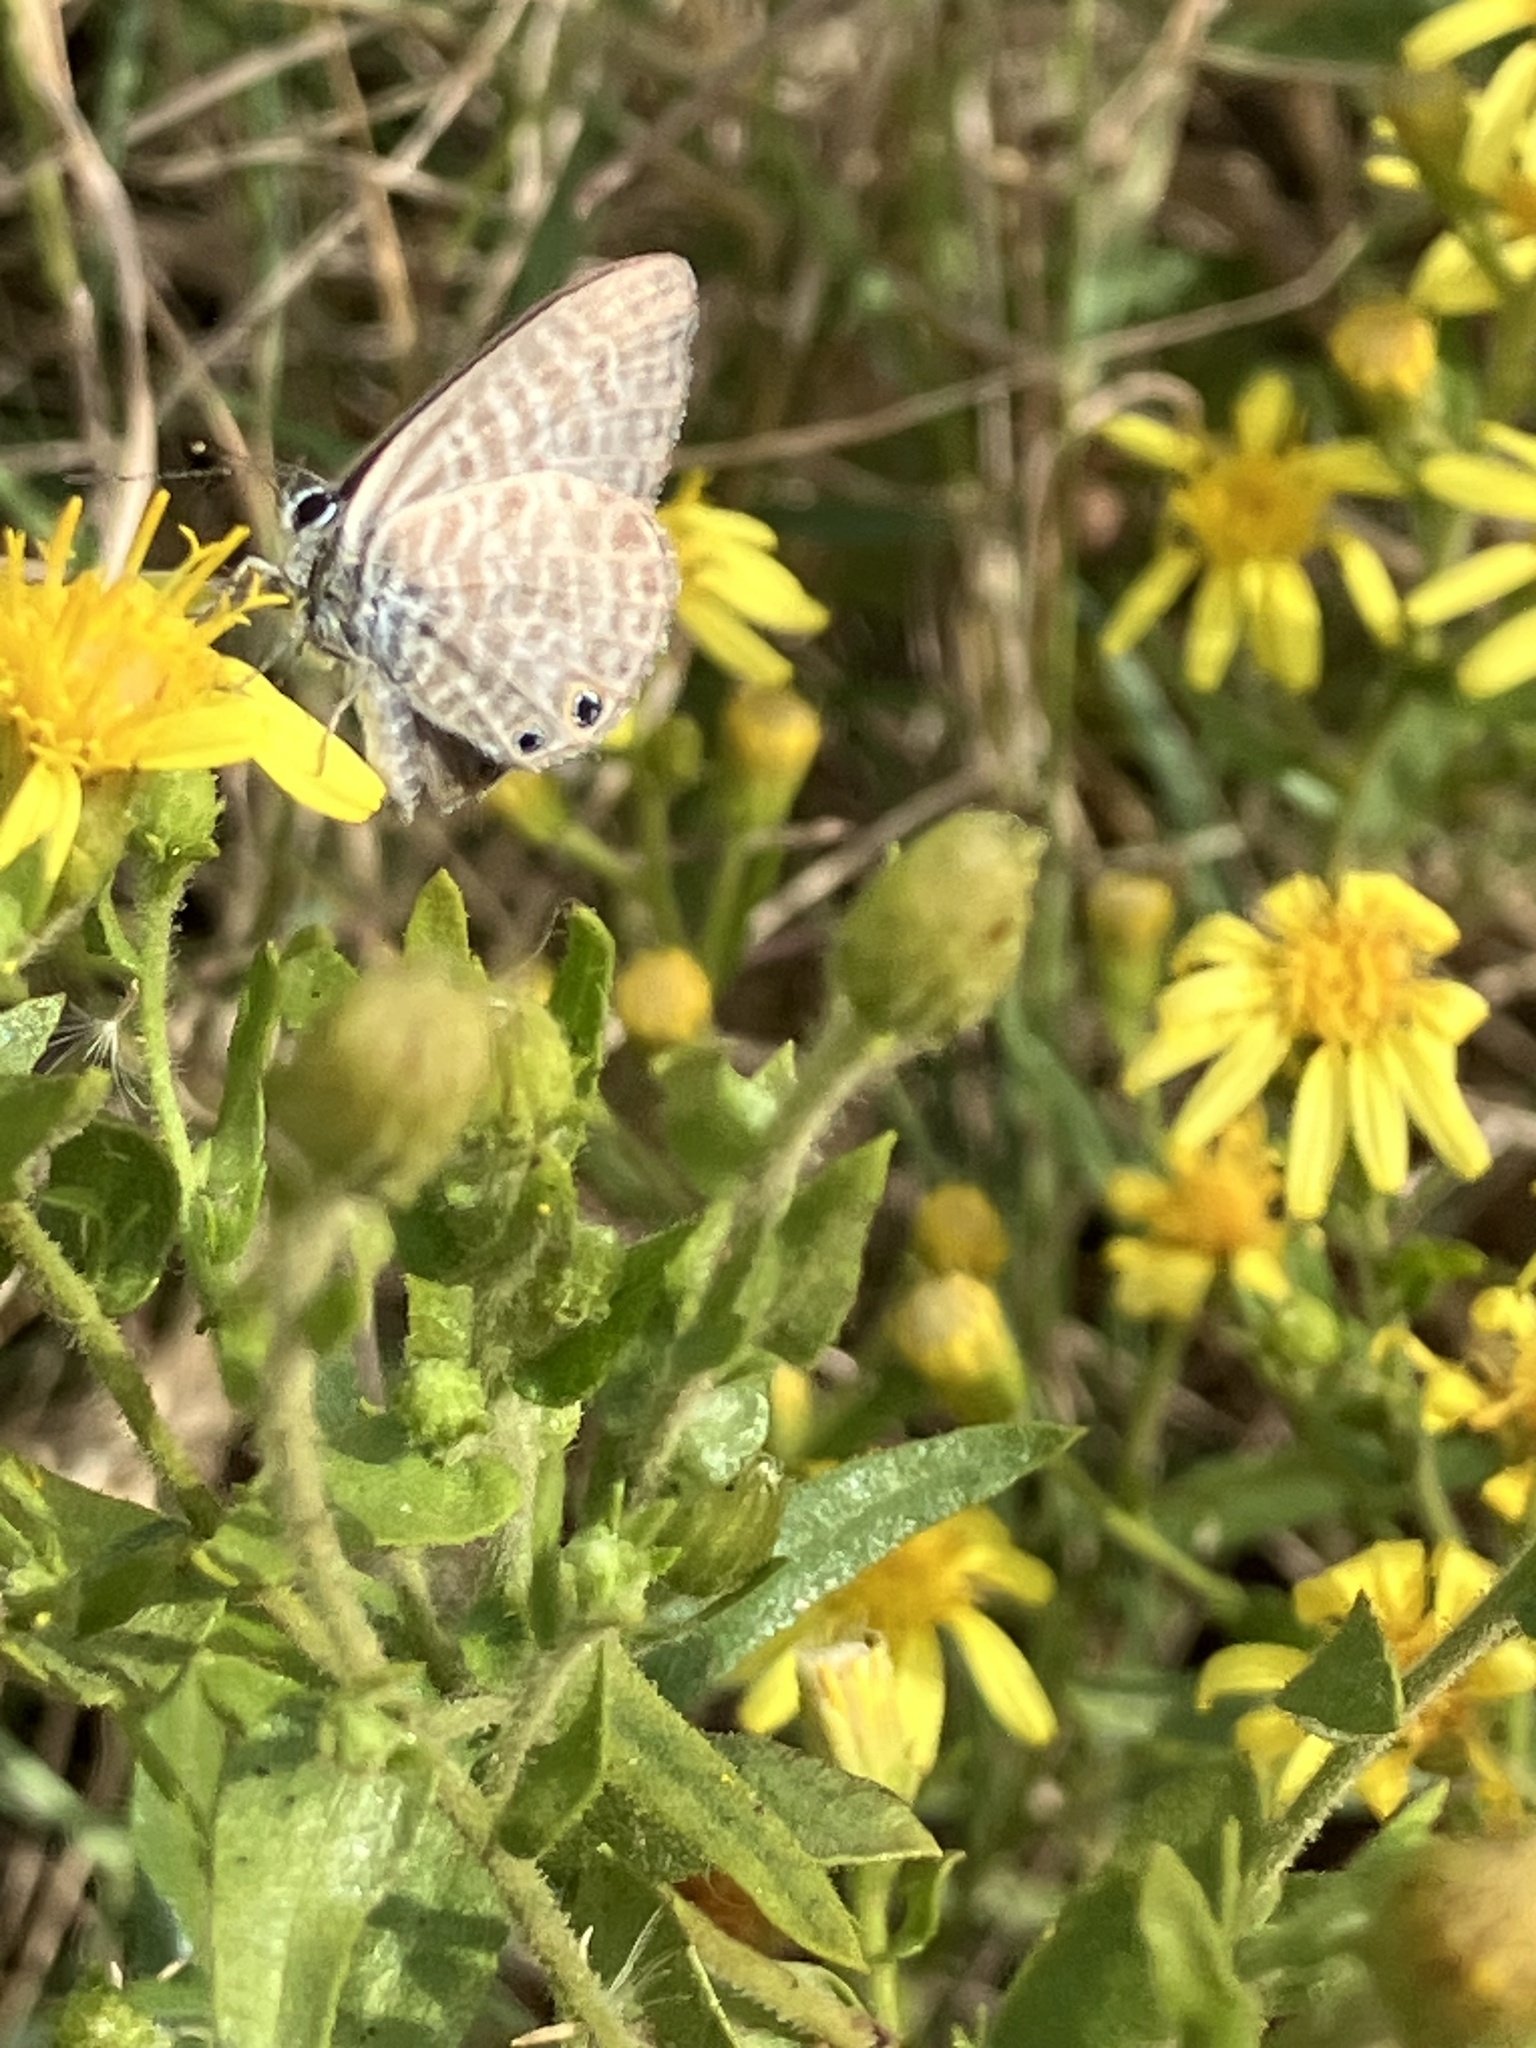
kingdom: Animalia
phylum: Arthropoda
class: Insecta
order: Lepidoptera
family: Lycaenidae
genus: Leptotes
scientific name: Leptotes pirithous
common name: Lang's short-tailed blue
